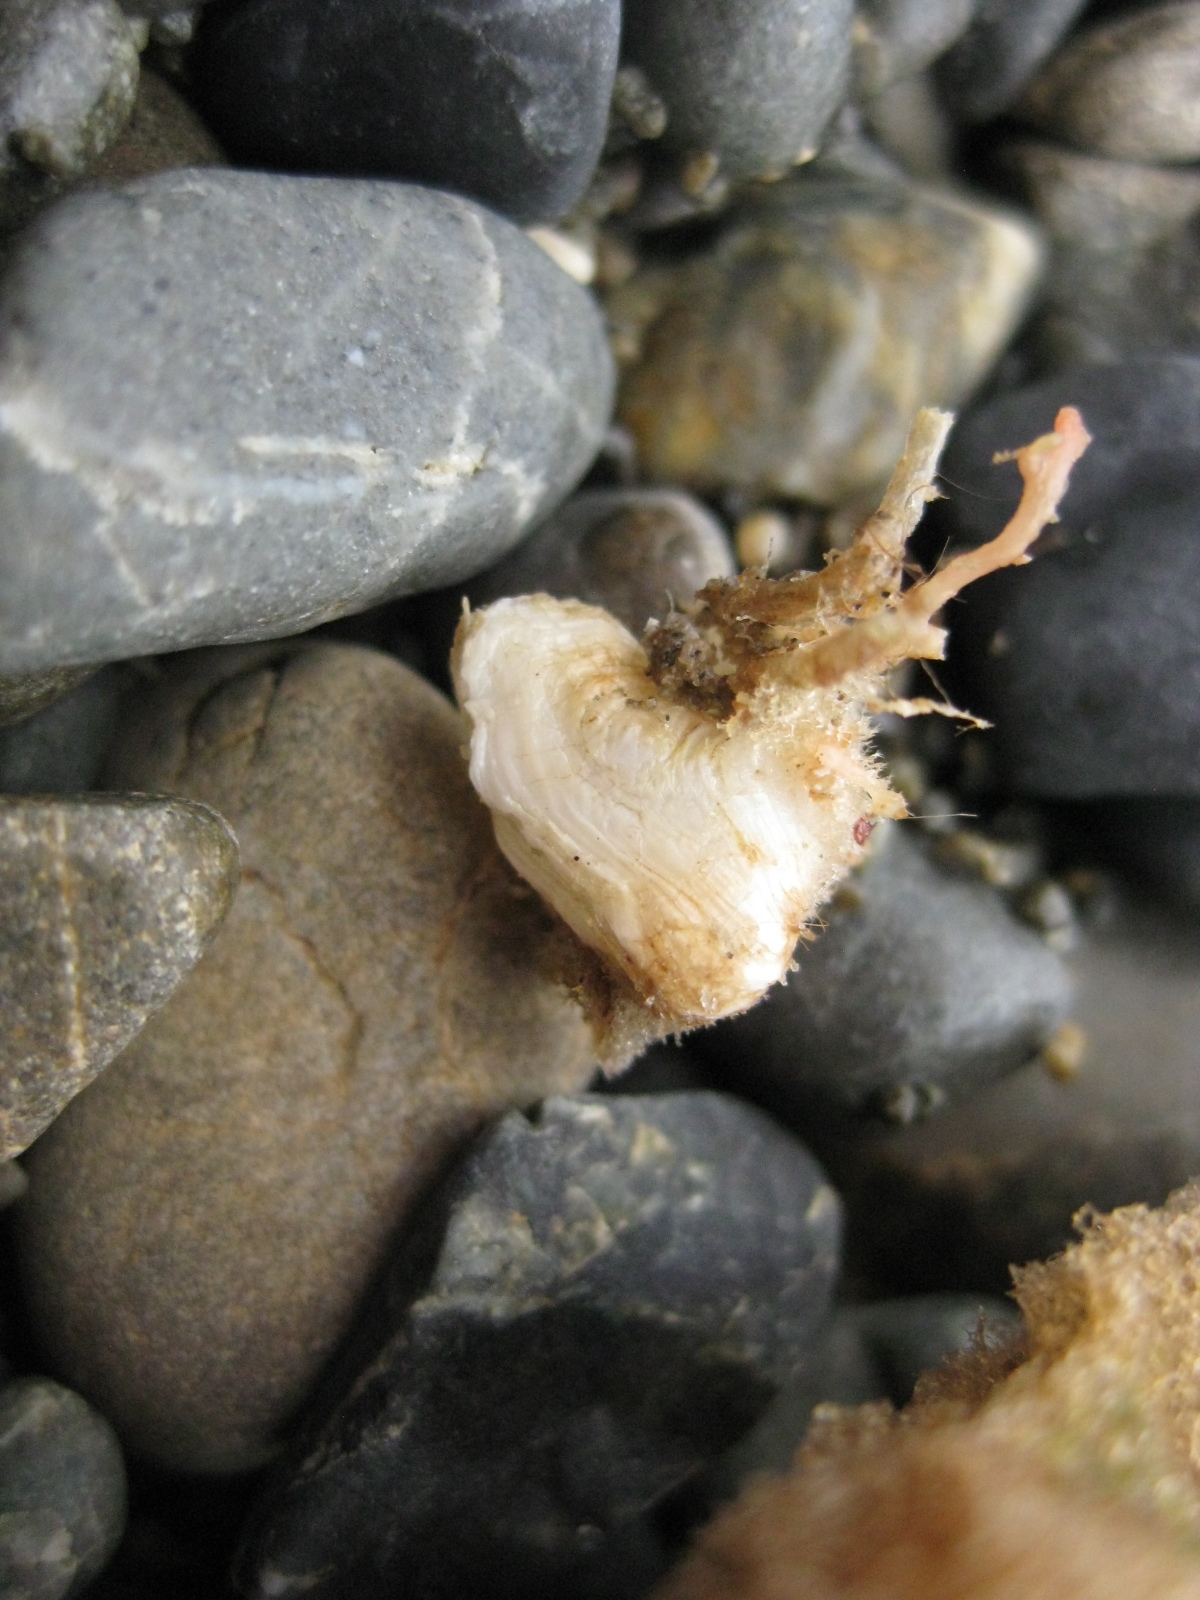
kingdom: Animalia
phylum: Mollusca
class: Bivalvia
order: Adapedonta
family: Hiatellidae
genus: Hiatella
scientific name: Hiatella arctica
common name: Arctic hiatella
